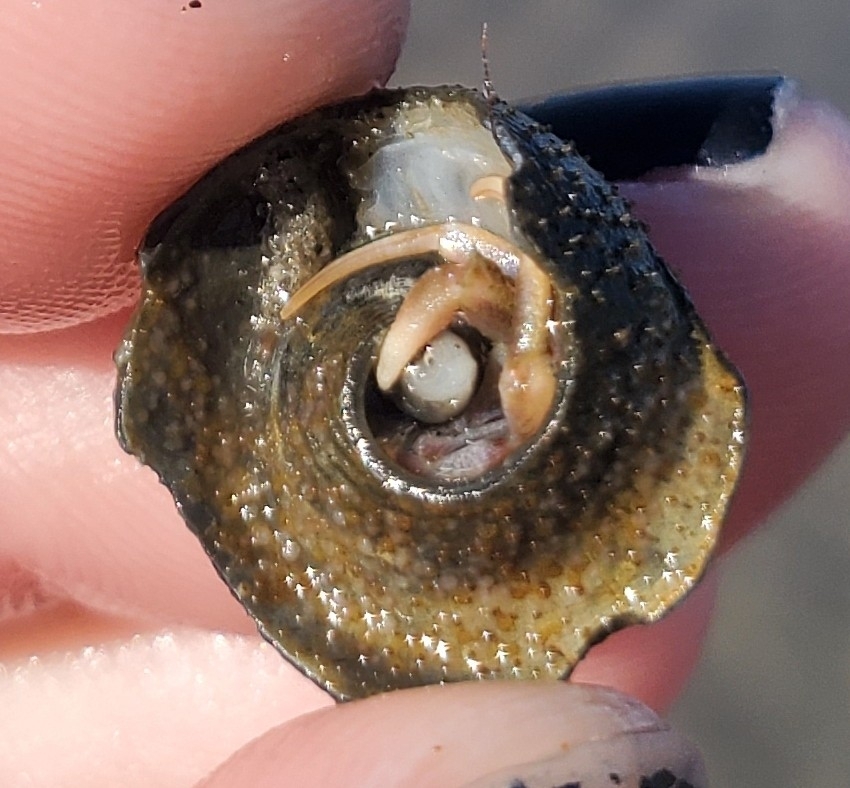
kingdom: Animalia
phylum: Arthropoda
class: Malacostraca
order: Decapoda
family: Paguridae
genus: Pagurus
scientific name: Pagurus longicarpus
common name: Long-armed hermit crab
